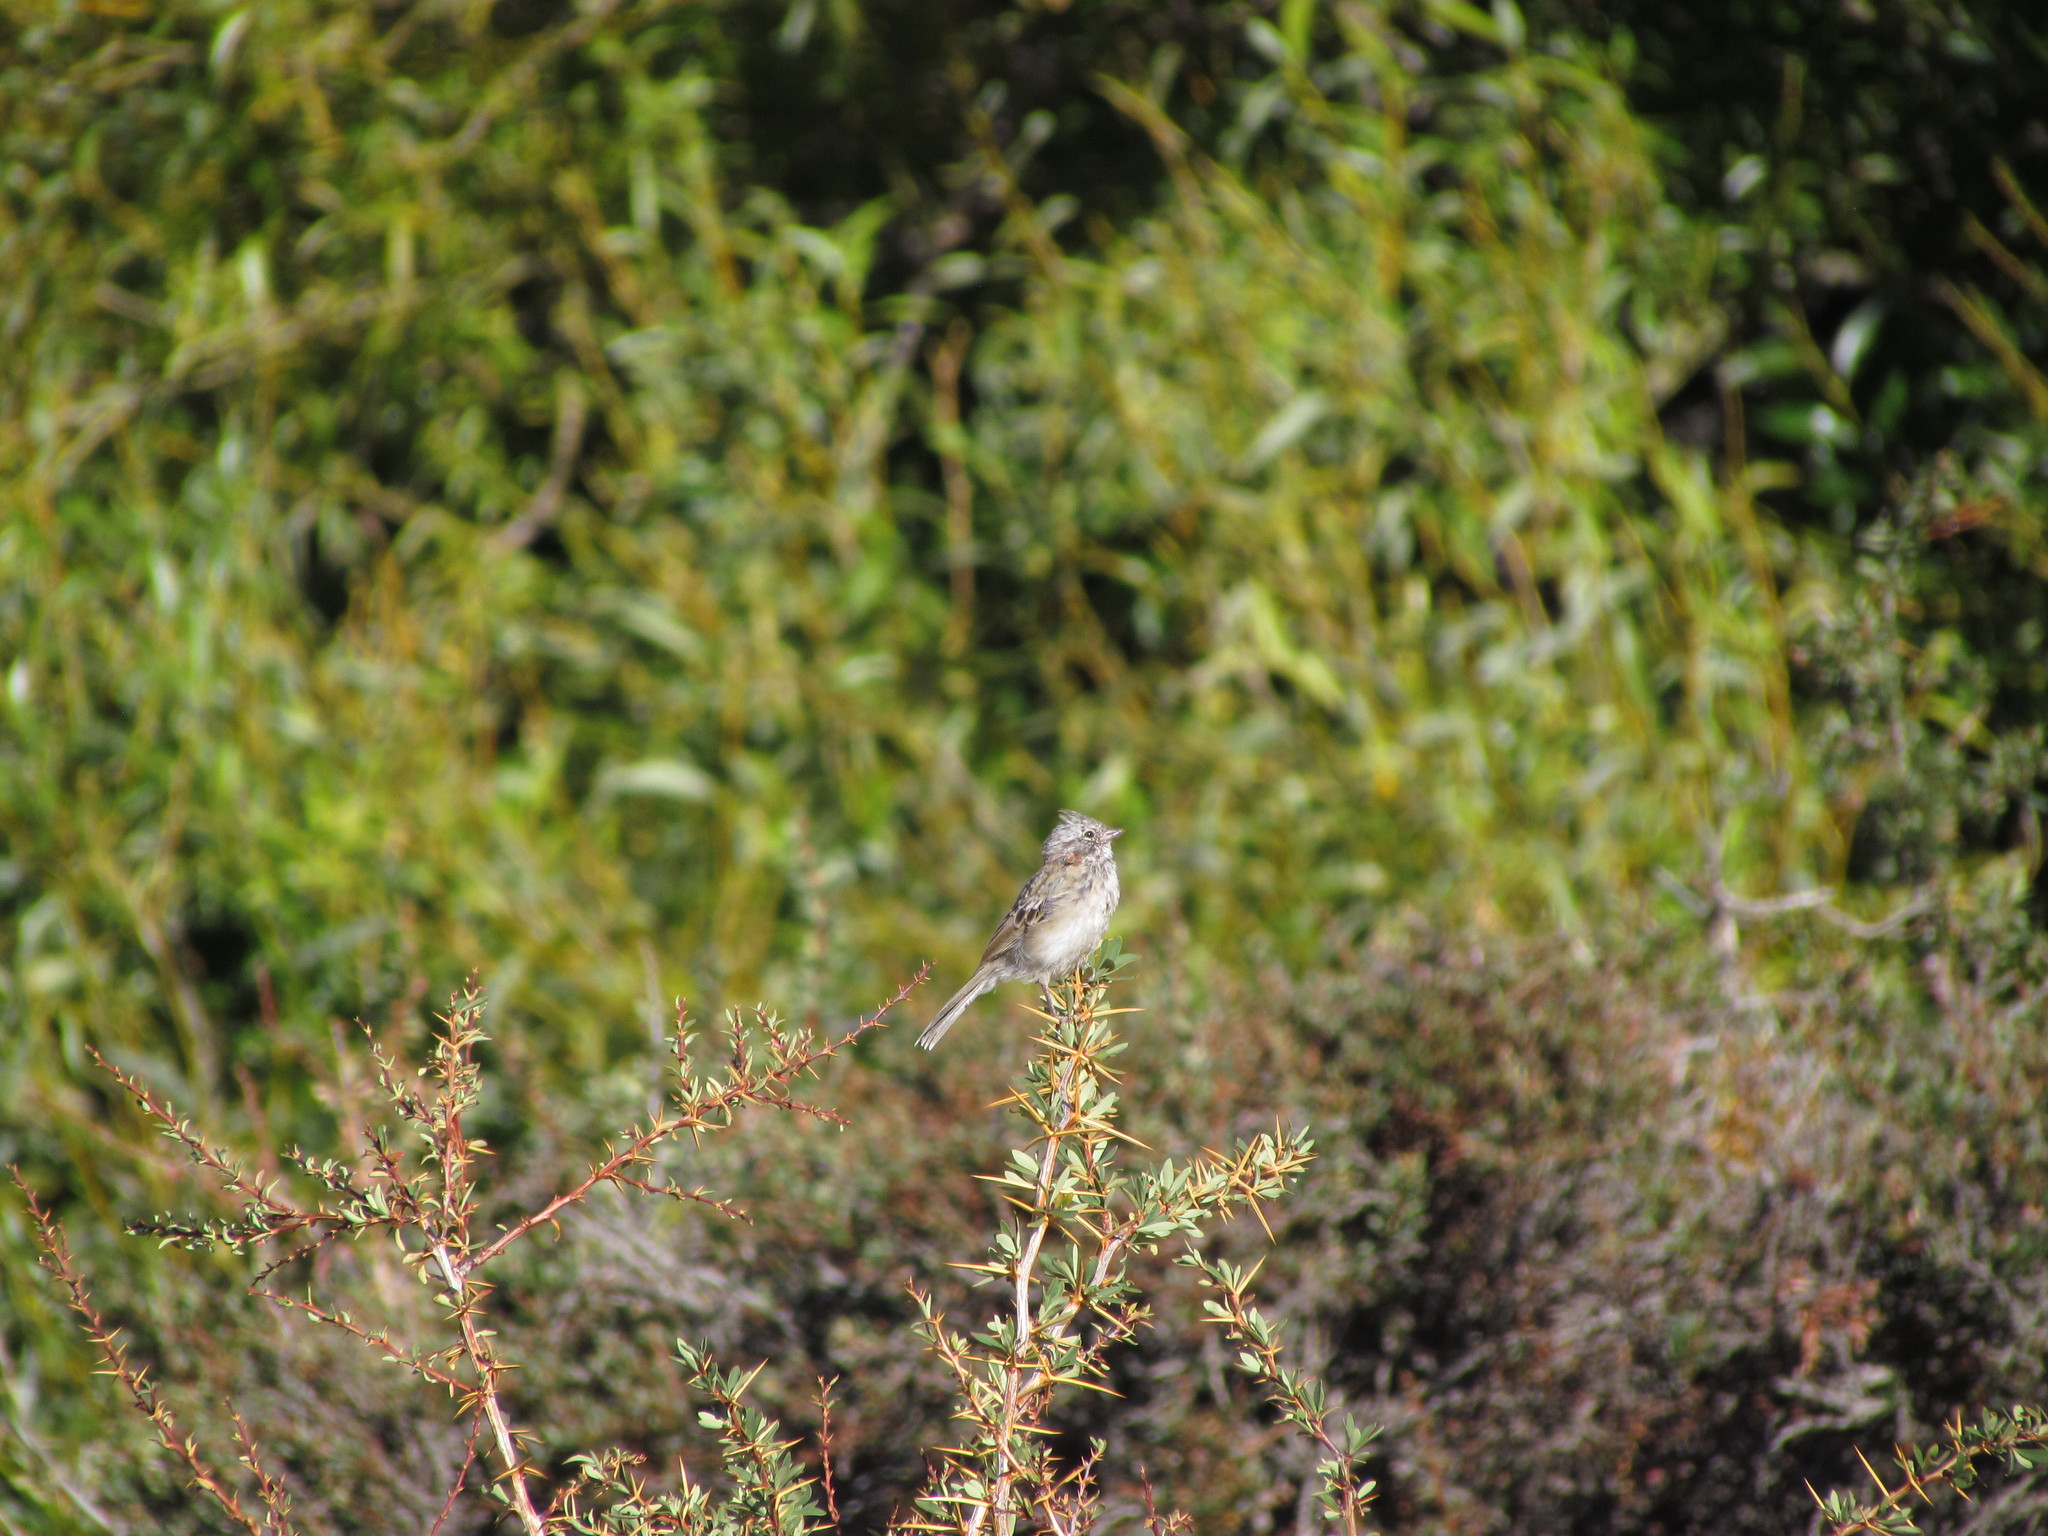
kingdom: Animalia
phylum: Chordata
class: Aves
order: Passeriformes
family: Passerellidae
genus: Zonotrichia
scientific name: Zonotrichia capensis
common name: Rufous-collared sparrow
